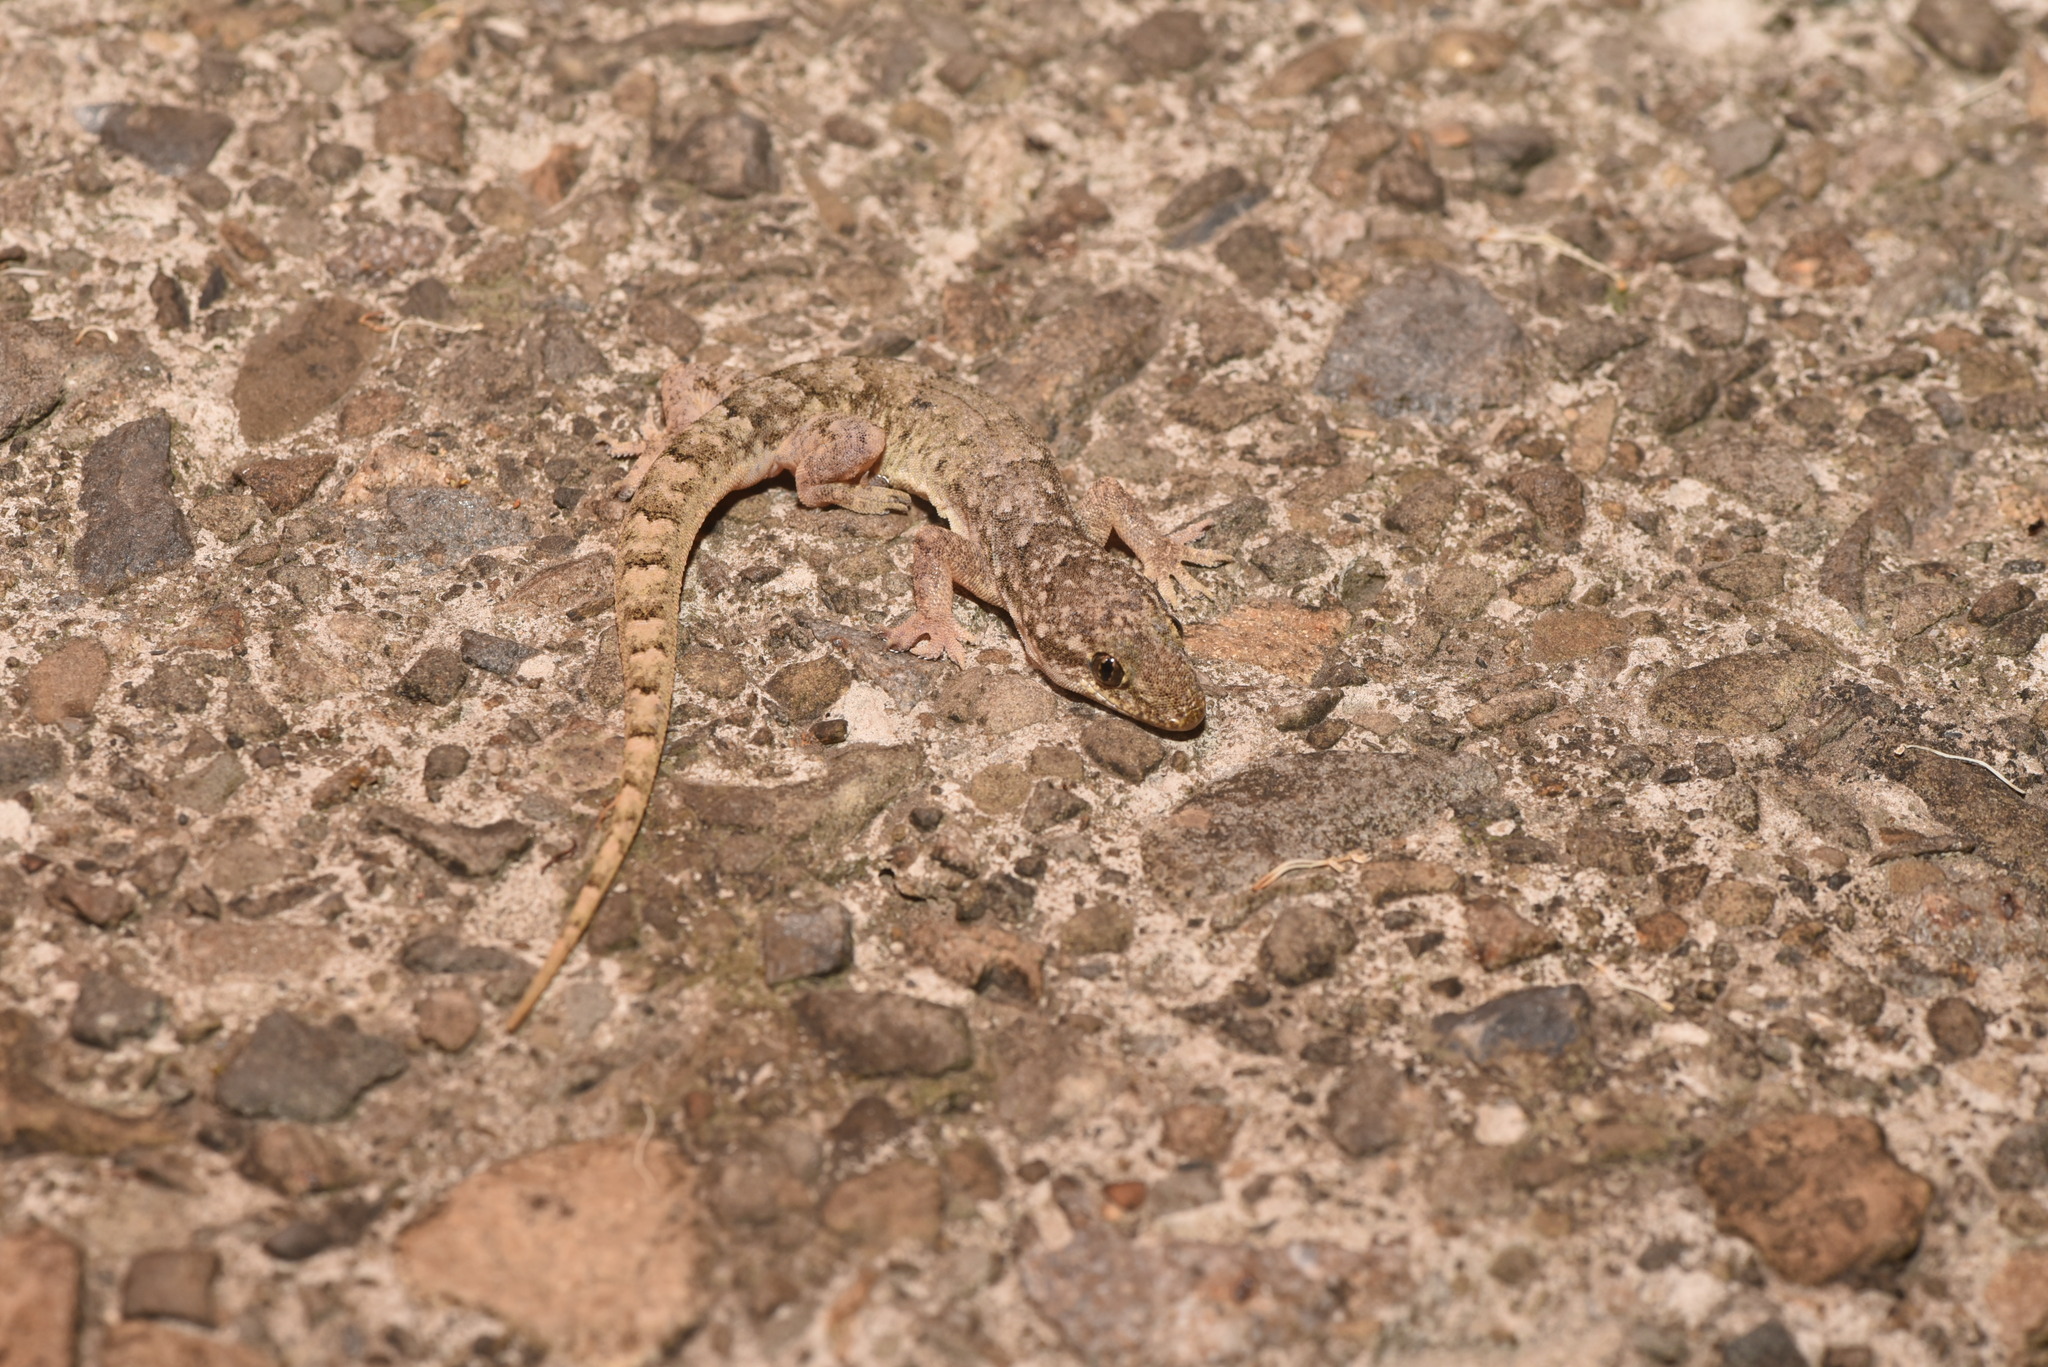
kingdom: Animalia
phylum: Chordata
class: Squamata
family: Gekkonidae
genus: Hemidactylus
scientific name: Hemidactylus bowringii
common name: Oriental leaf-toed gecko
